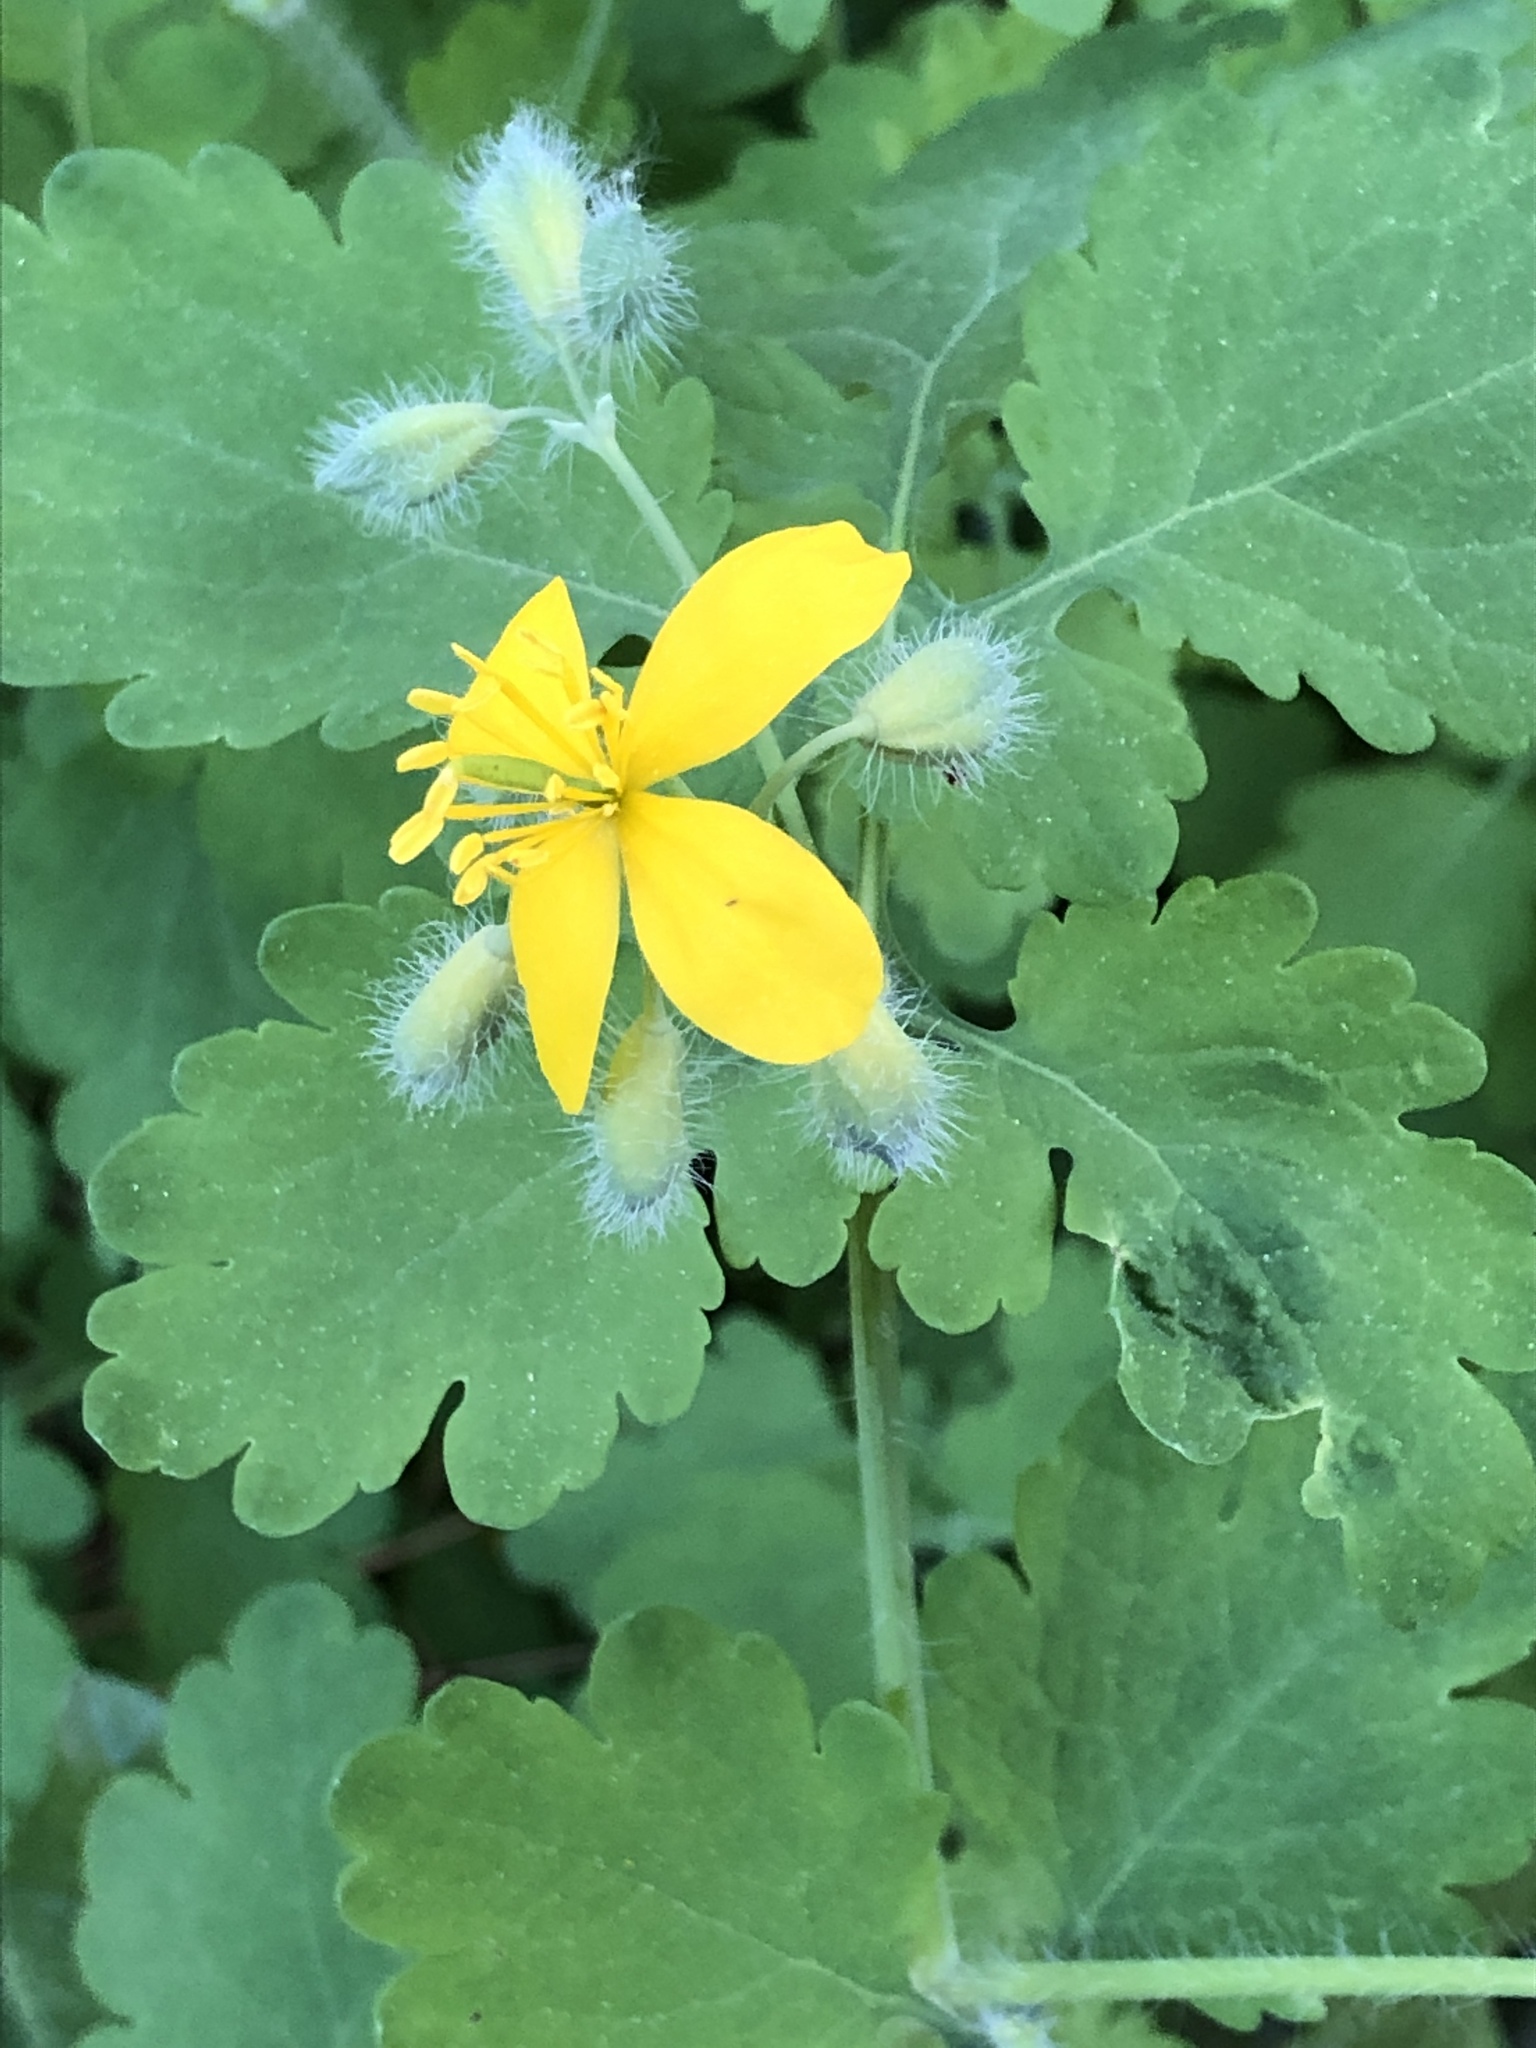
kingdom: Plantae
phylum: Tracheophyta
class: Magnoliopsida
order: Ranunculales
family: Papaveraceae
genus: Chelidonium
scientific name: Chelidonium majus
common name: Greater celandine
